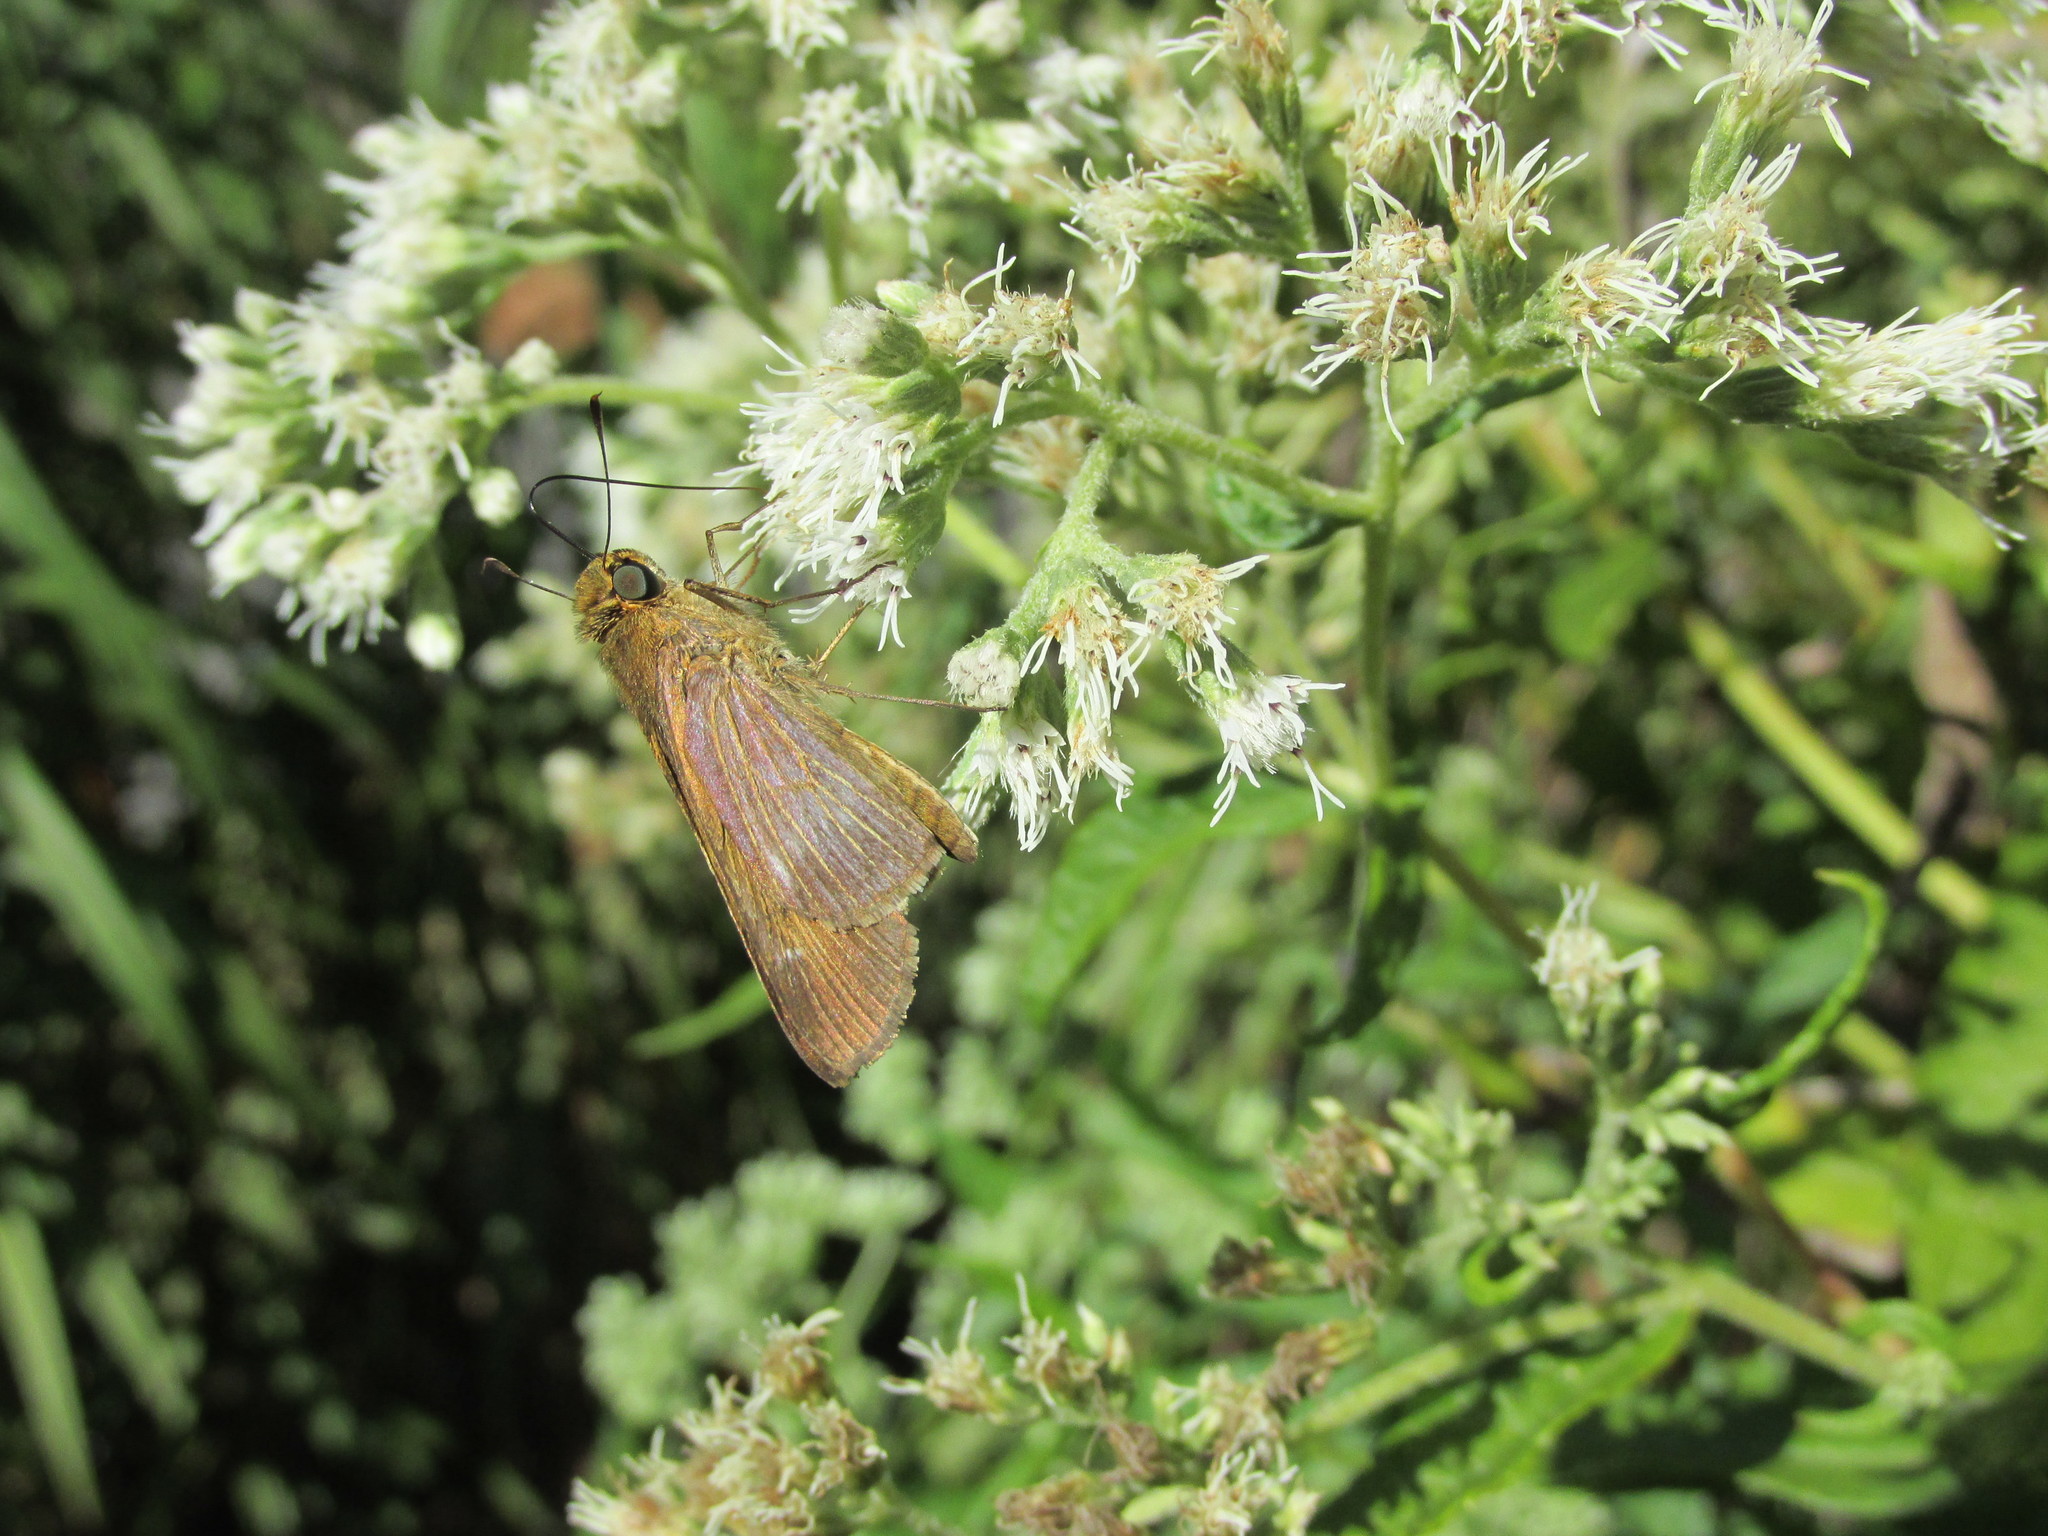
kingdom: Animalia
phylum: Arthropoda
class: Insecta
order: Lepidoptera
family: Hesperiidae
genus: Panoquina
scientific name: Panoquina ocola
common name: Ocola skipper
